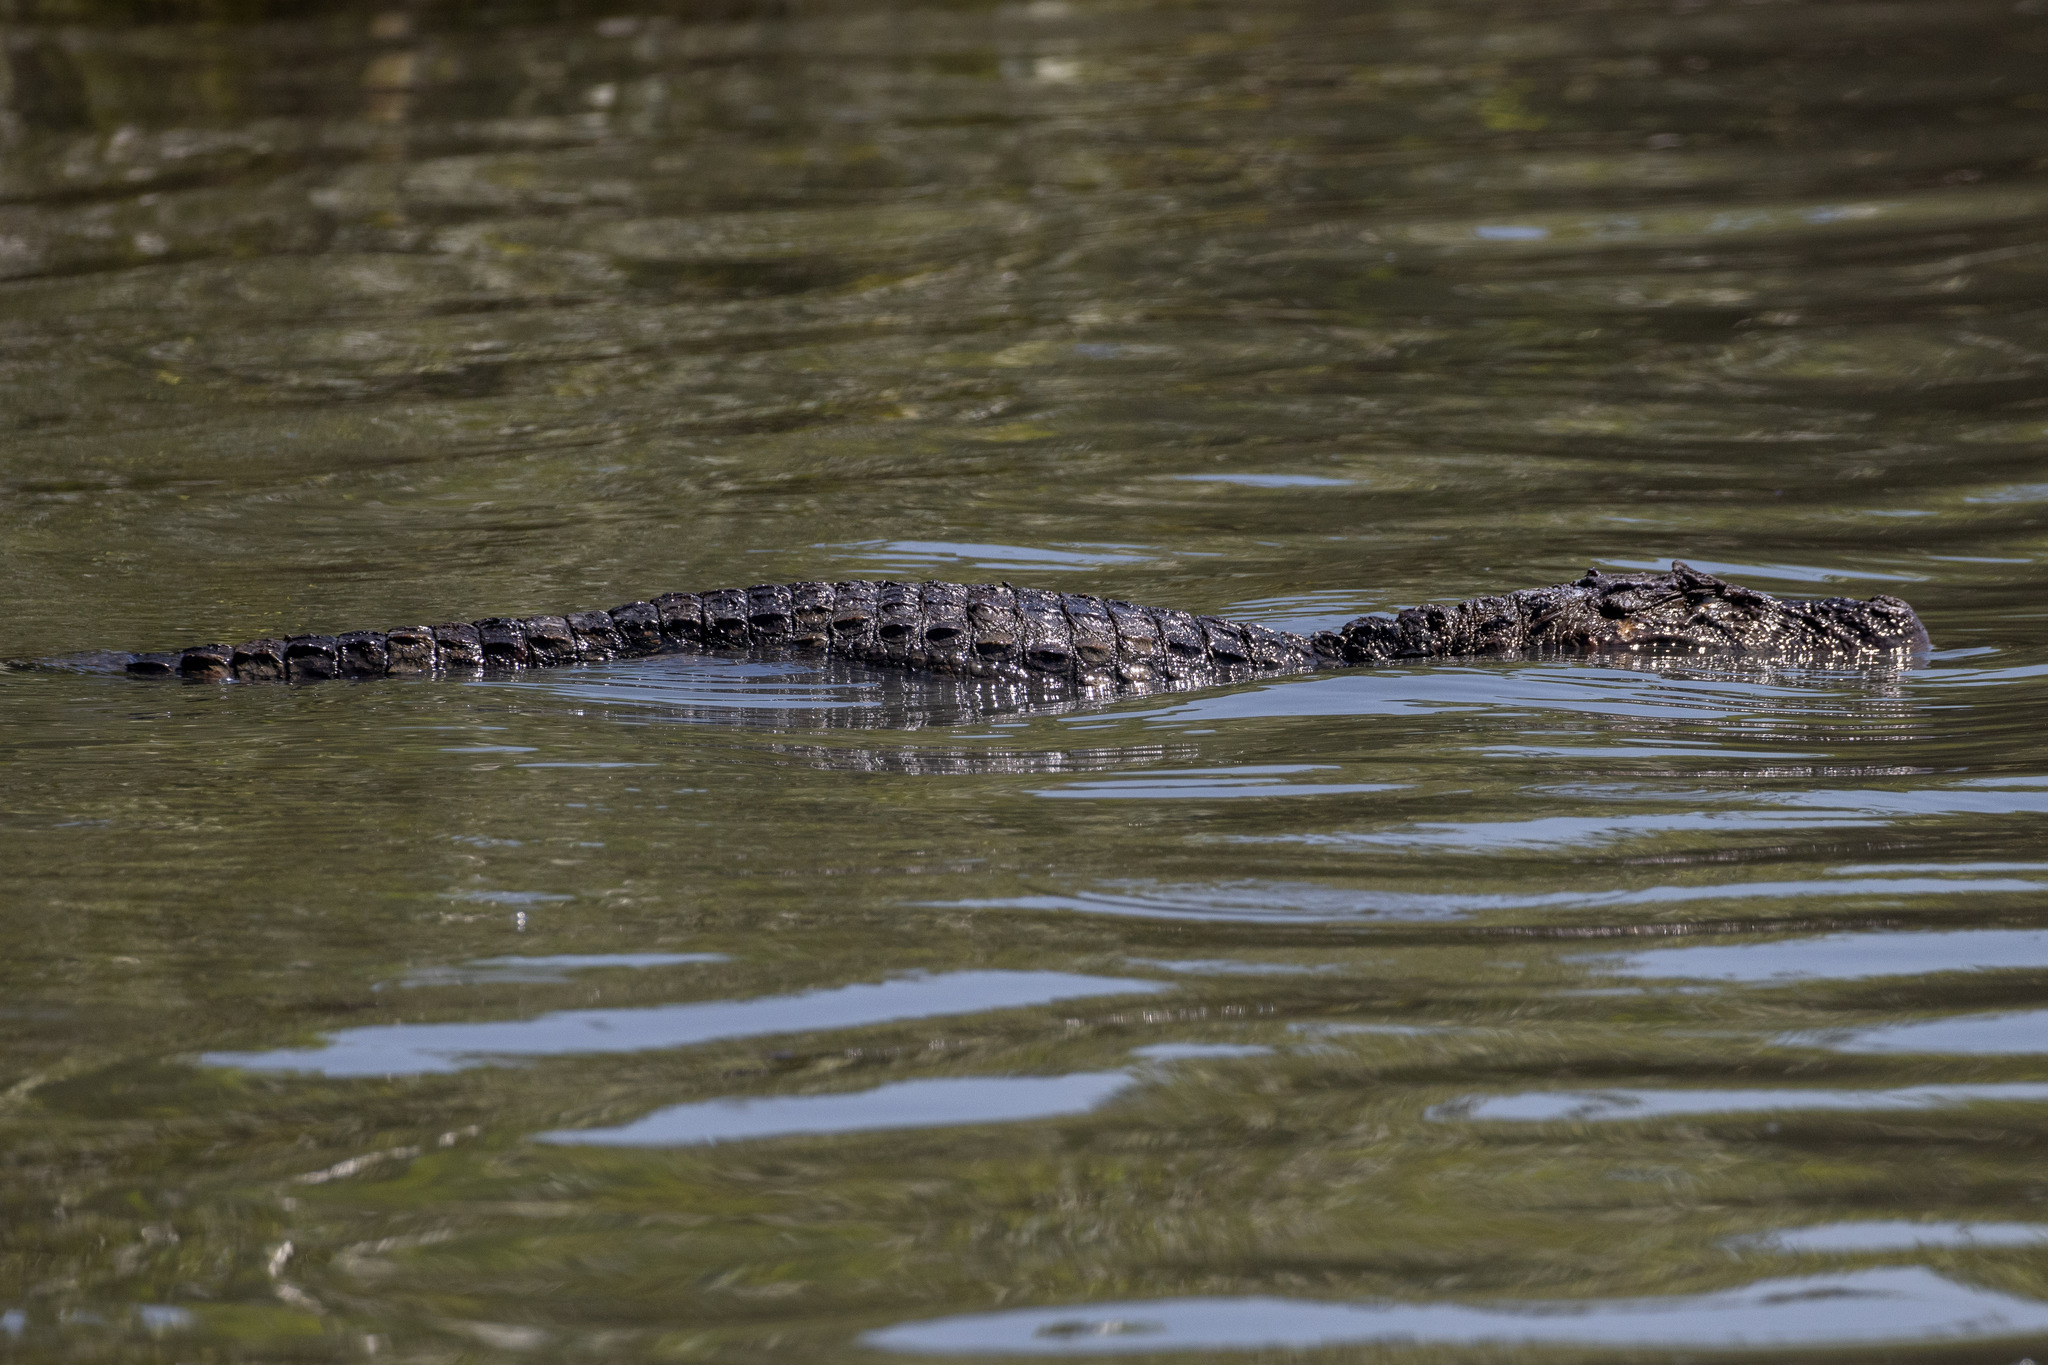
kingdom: Animalia
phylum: Chordata
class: Crocodylia
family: Alligatoridae
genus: Caiman
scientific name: Caiman latirostris
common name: Broad-snouted caiman
